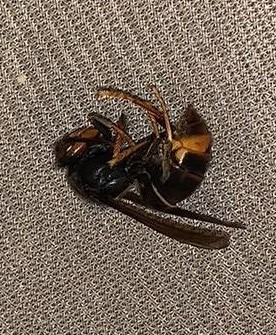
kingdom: Animalia
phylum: Arthropoda
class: Insecta
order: Hymenoptera
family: Vespidae
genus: Vespa
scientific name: Vespa velutina
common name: Asian hornet
